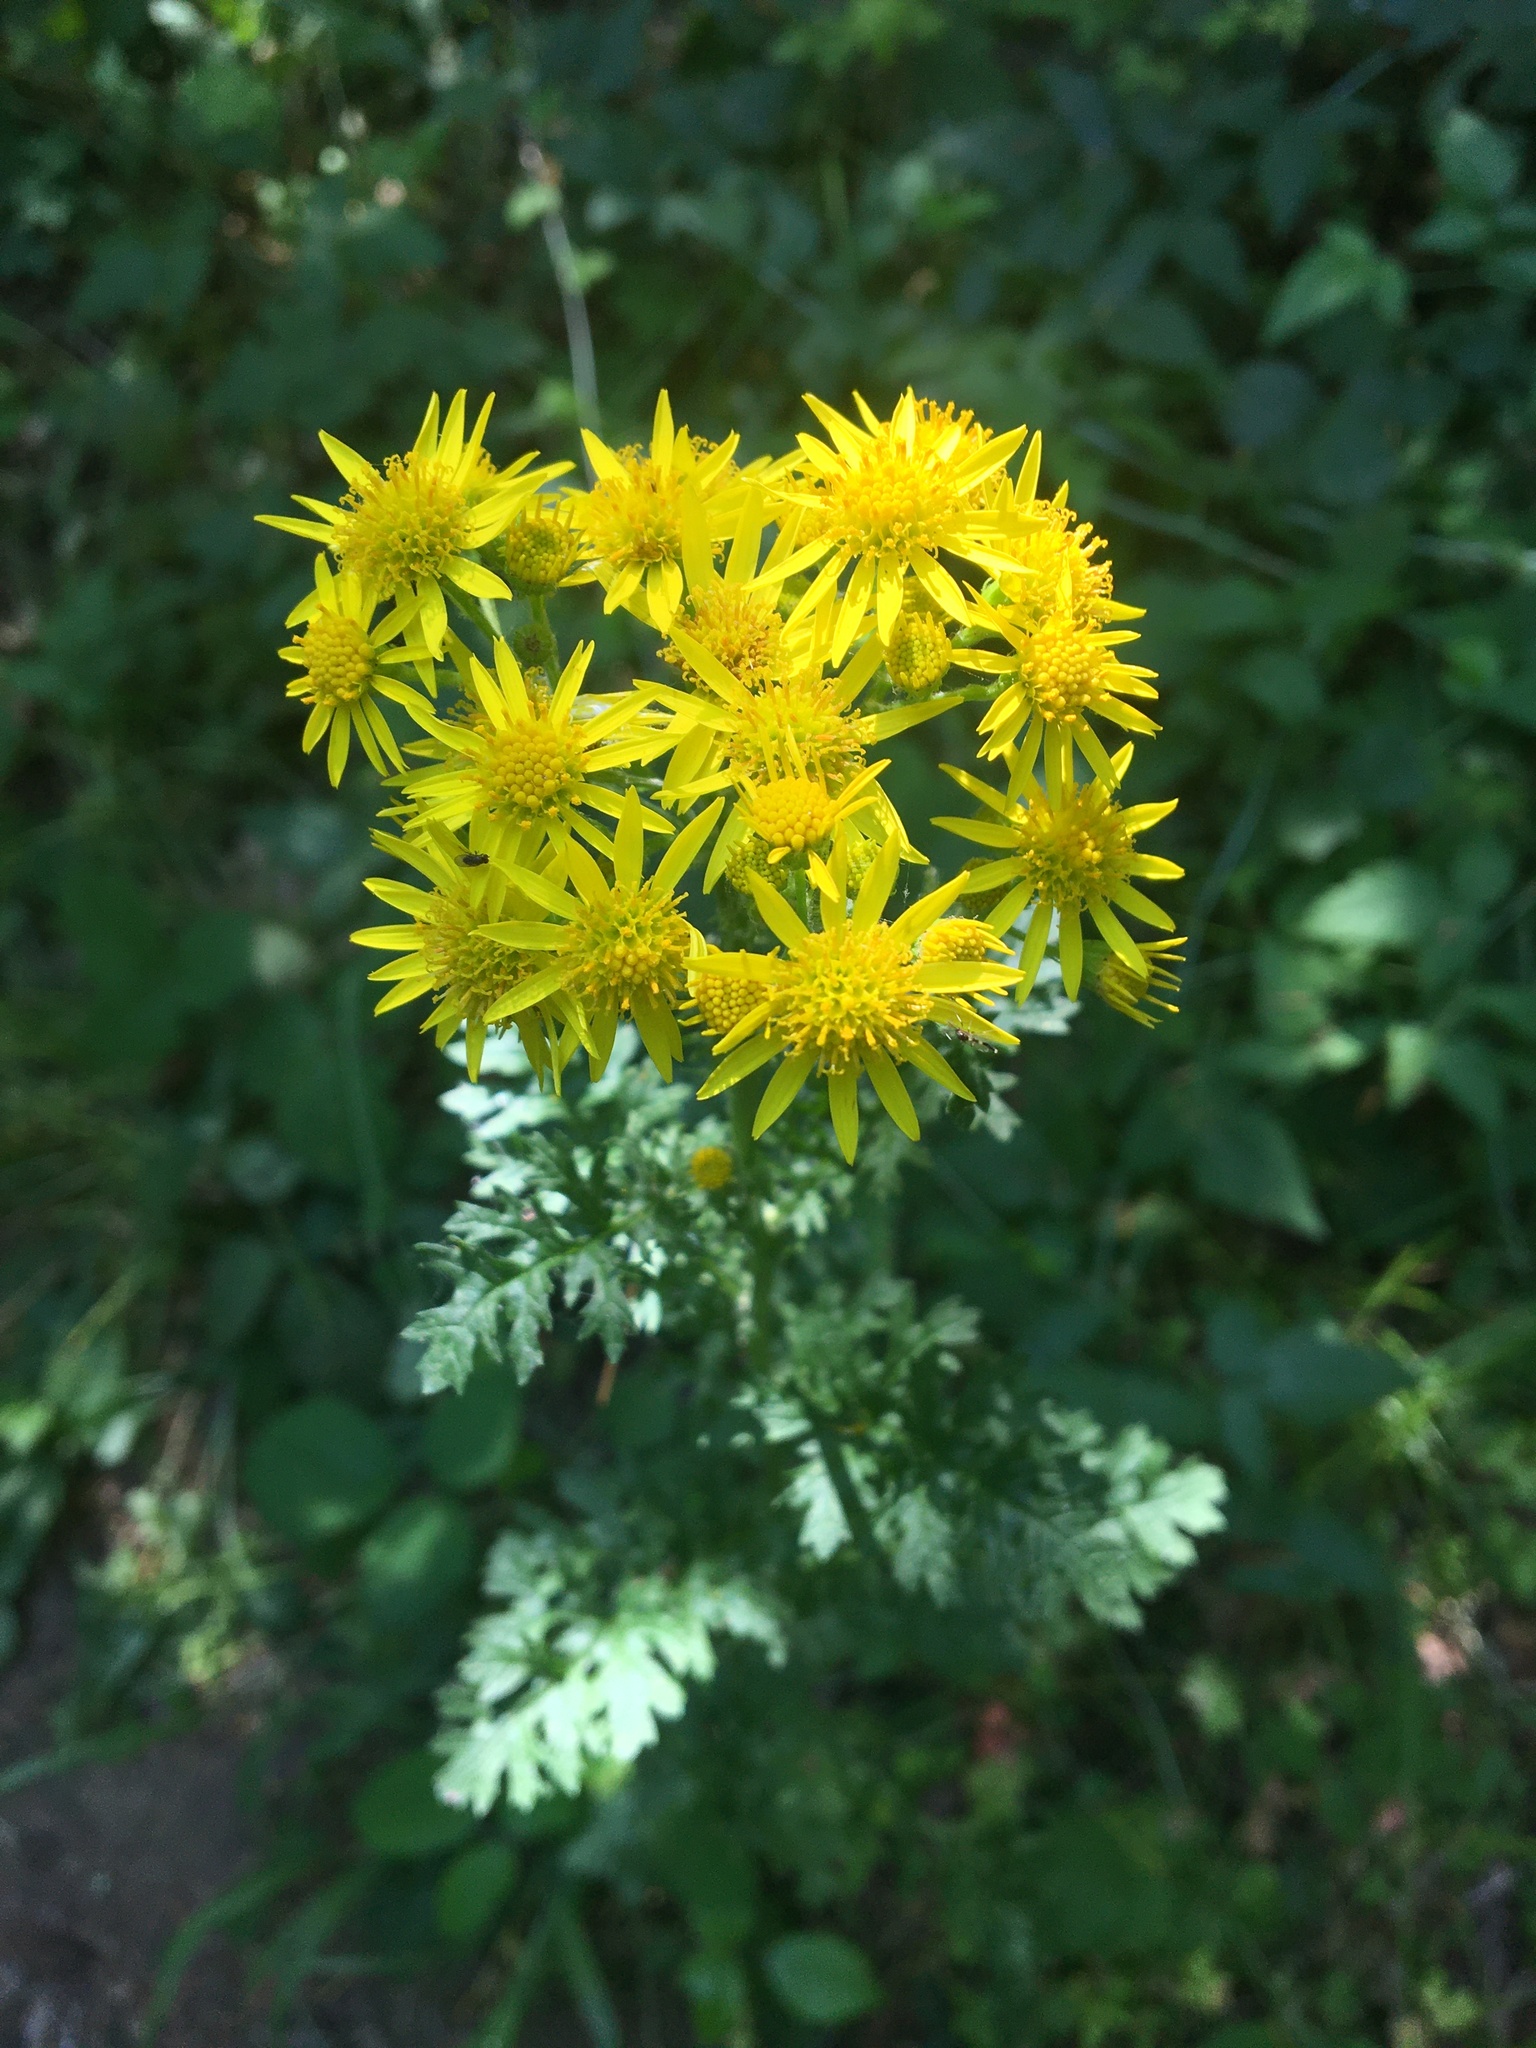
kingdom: Plantae
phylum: Tracheophyta
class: Magnoliopsida
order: Asterales
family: Asteraceae
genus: Jacobaea
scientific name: Jacobaea vulgaris
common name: Stinking willie
